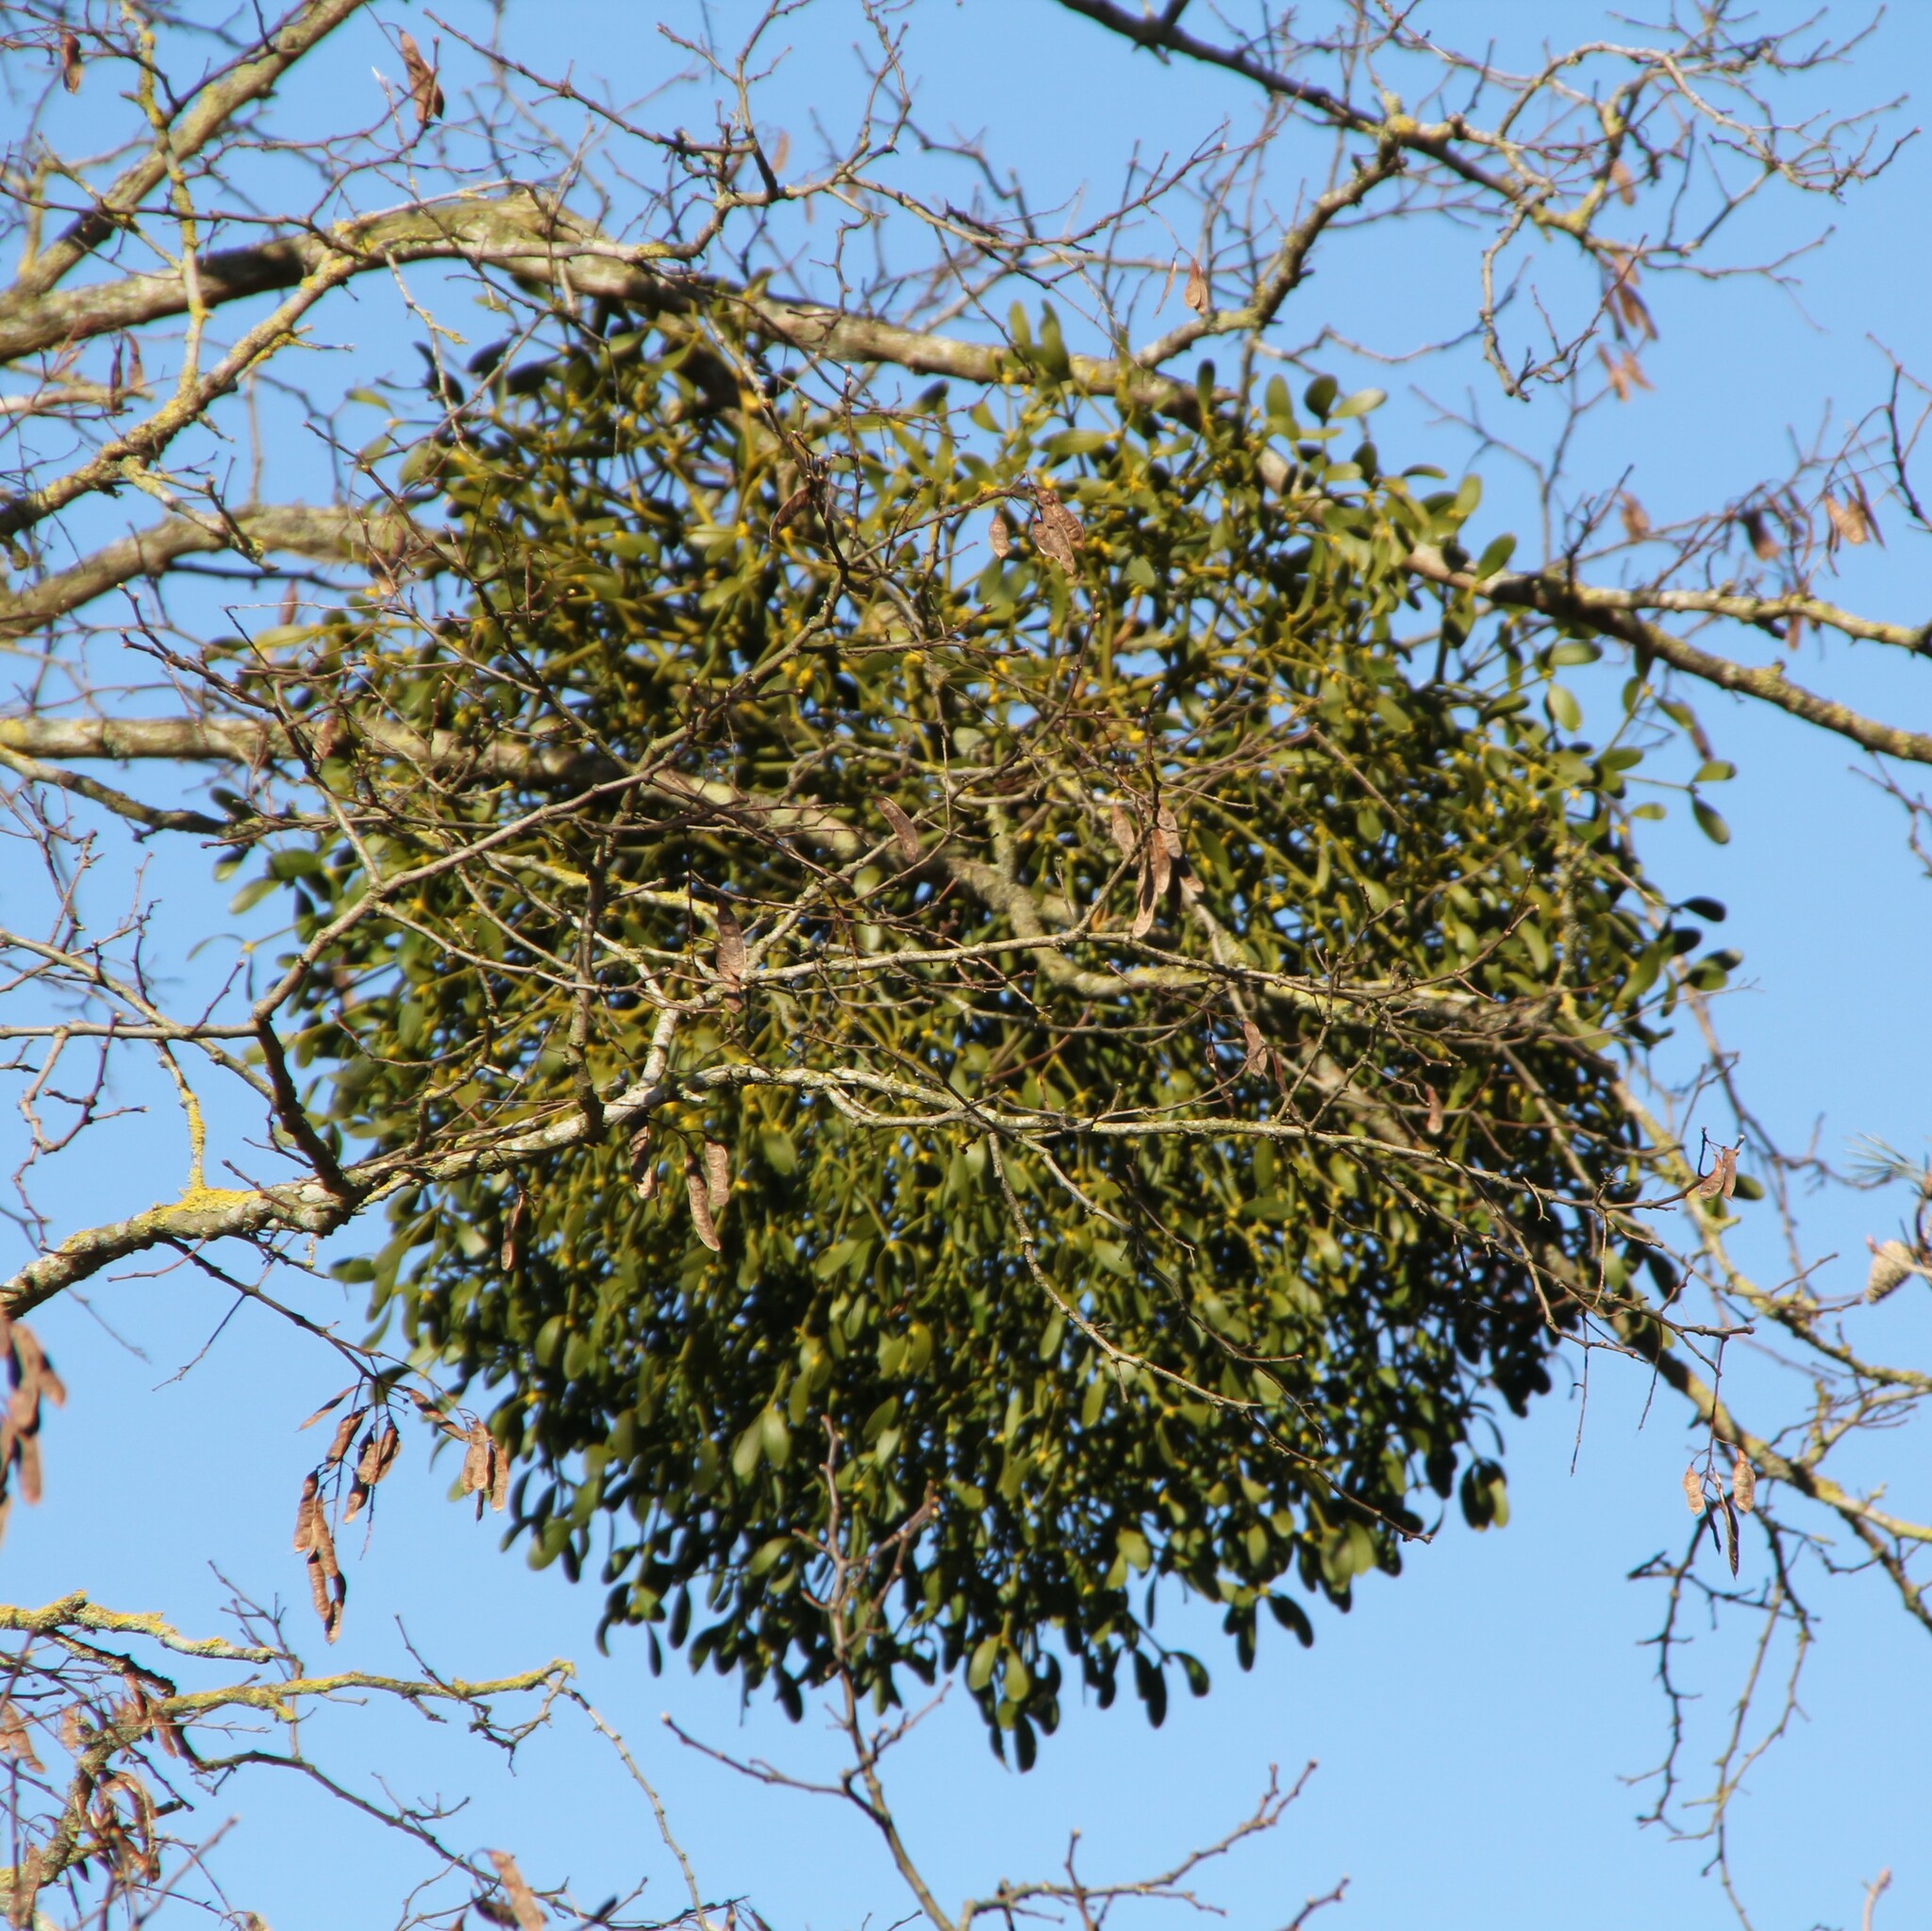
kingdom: Plantae
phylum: Tracheophyta
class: Magnoliopsida
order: Santalales
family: Viscaceae
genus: Viscum
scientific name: Viscum album
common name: Mistletoe
